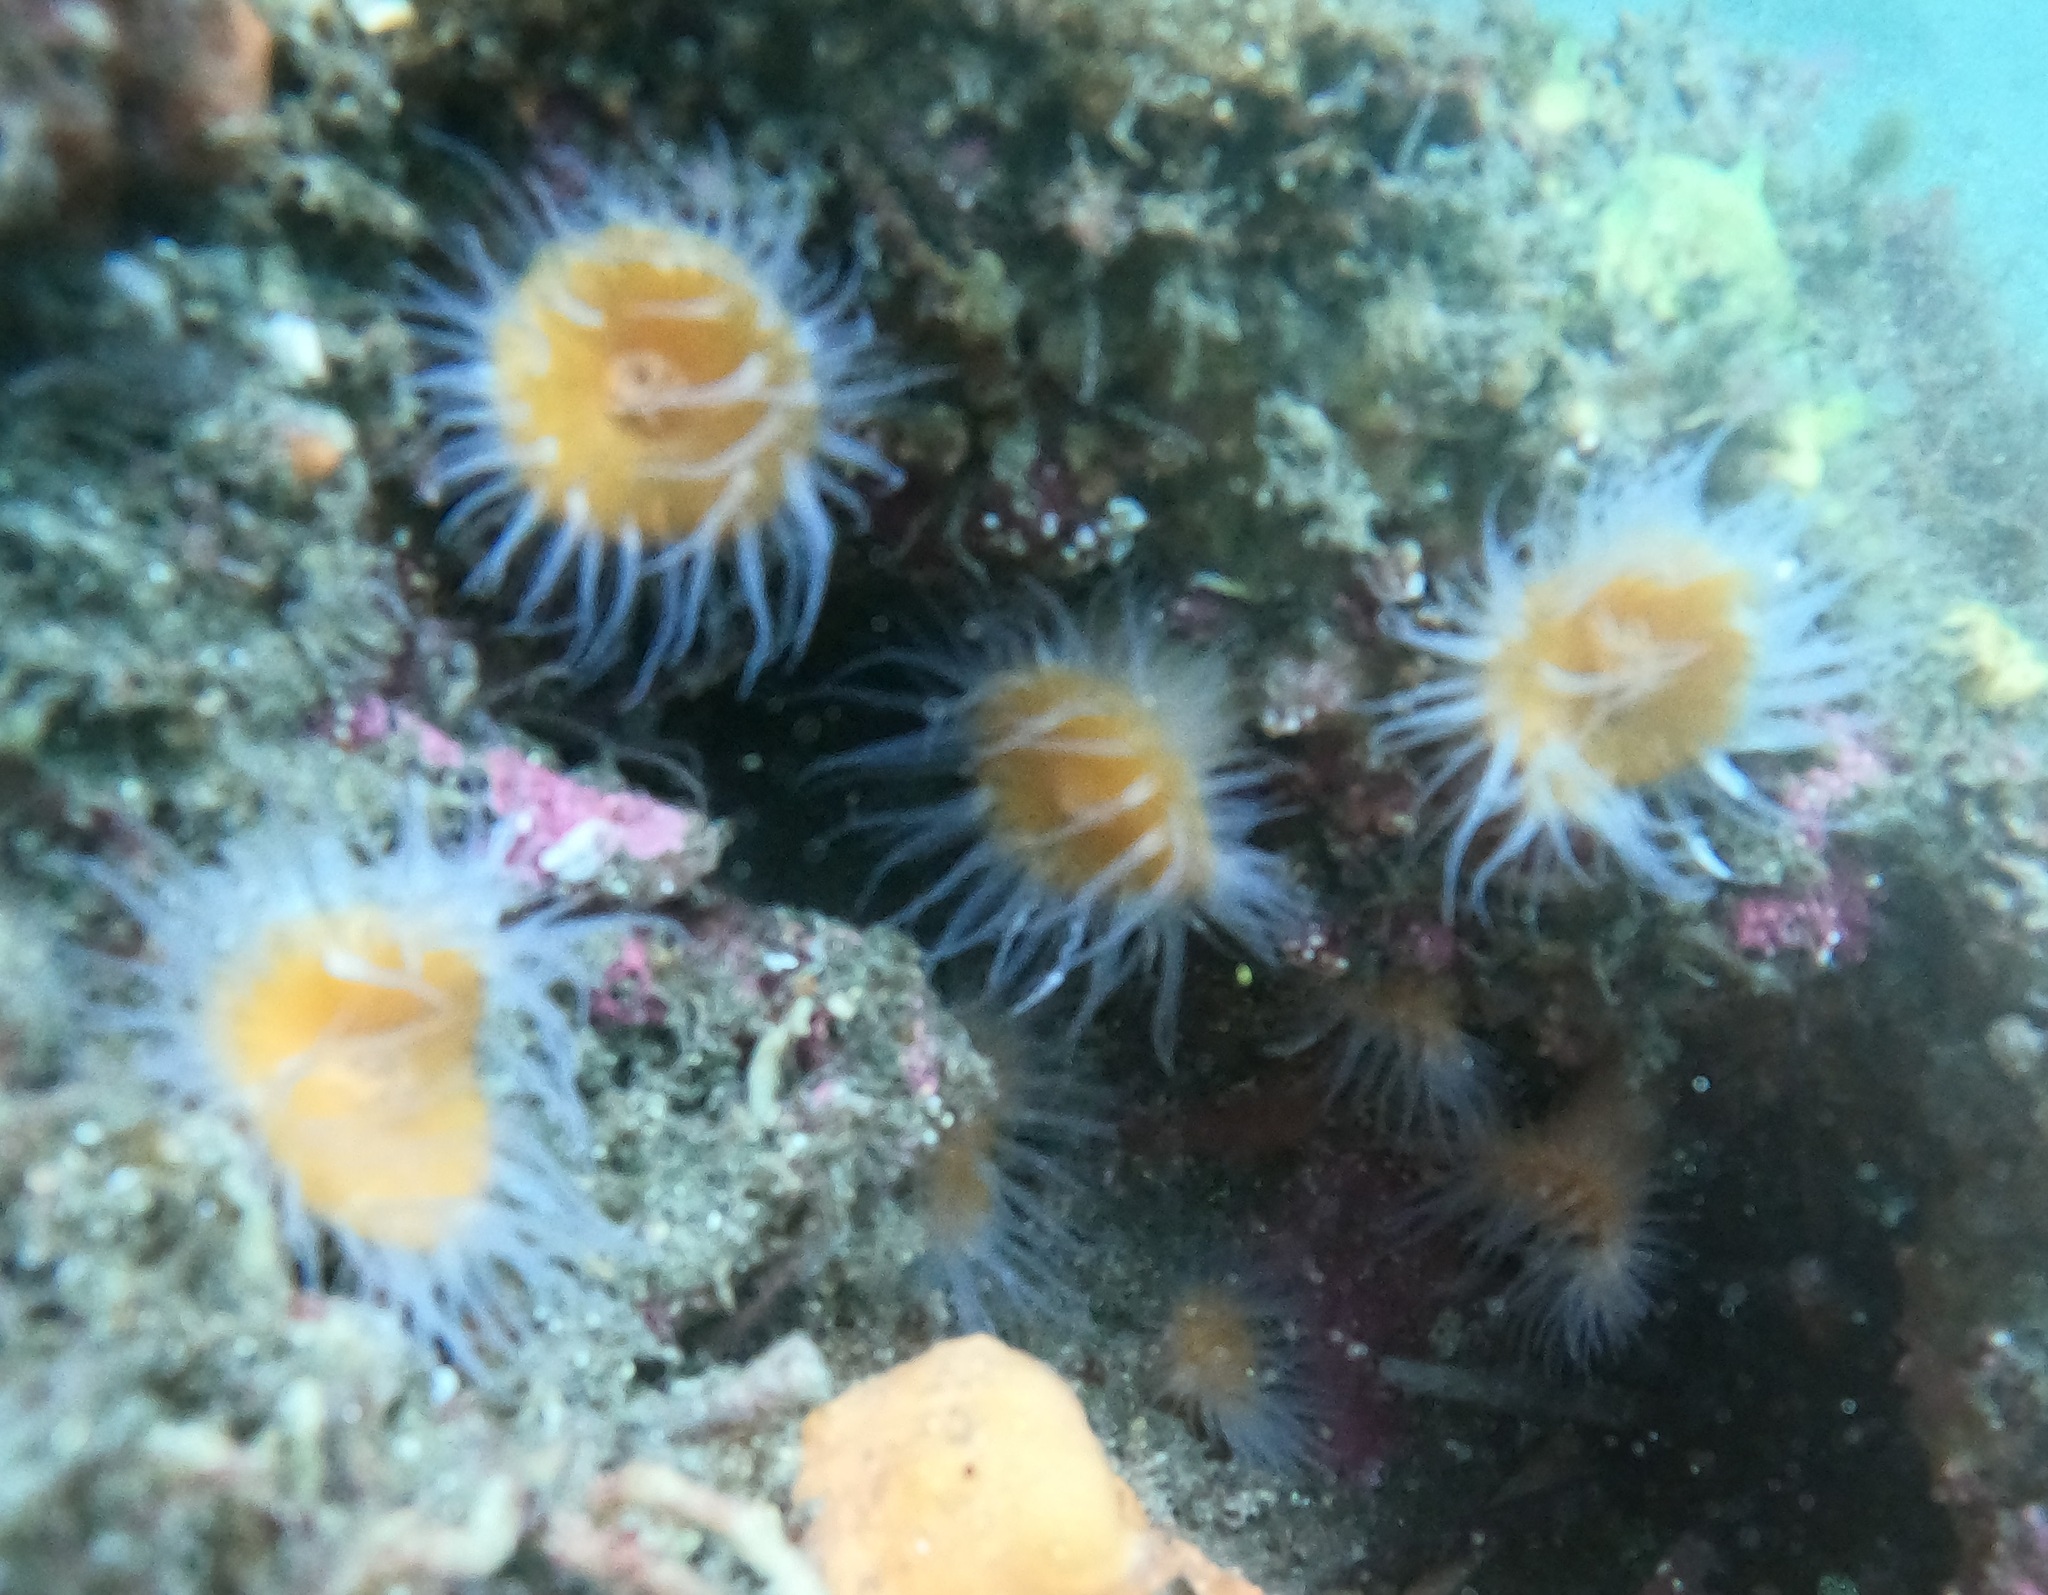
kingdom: Animalia
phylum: Cnidaria
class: Anthozoa
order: Actiniaria
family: Sagartiidae
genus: Anthothoe
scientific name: Anthothoe albocincta
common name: Orange striped anemone
